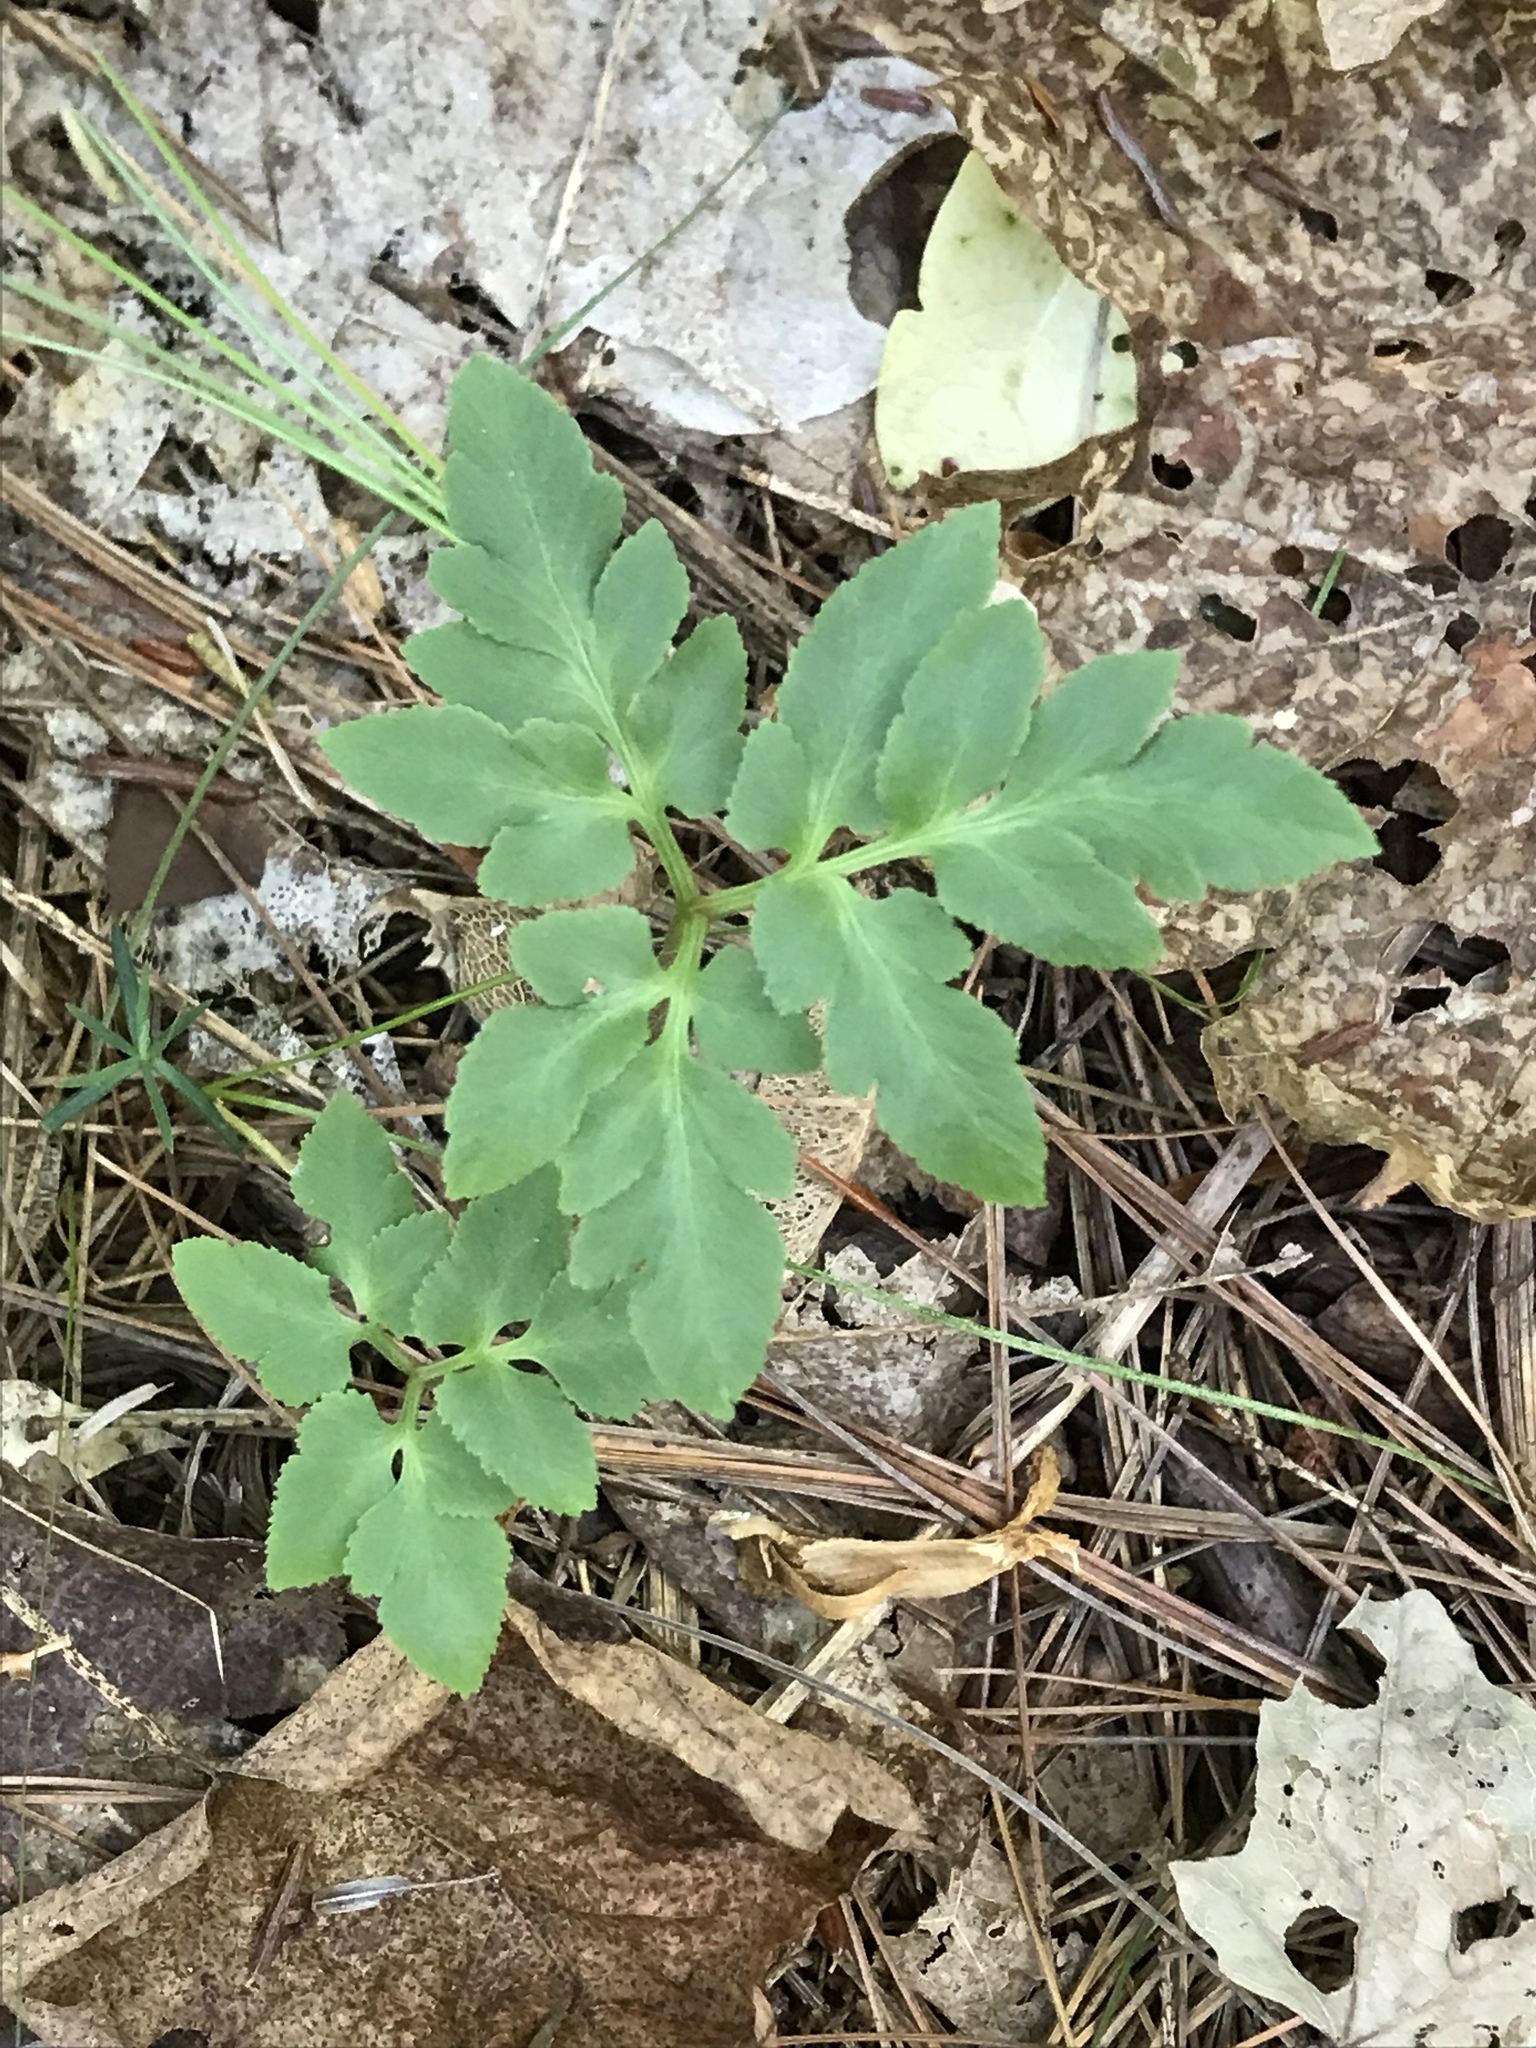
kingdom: Plantae
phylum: Tracheophyta
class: Polypodiopsida
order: Ophioglossales
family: Ophioglossaceae
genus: Sceptridium
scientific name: Sceptridium dissectum
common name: Cut-leaved grapefern
